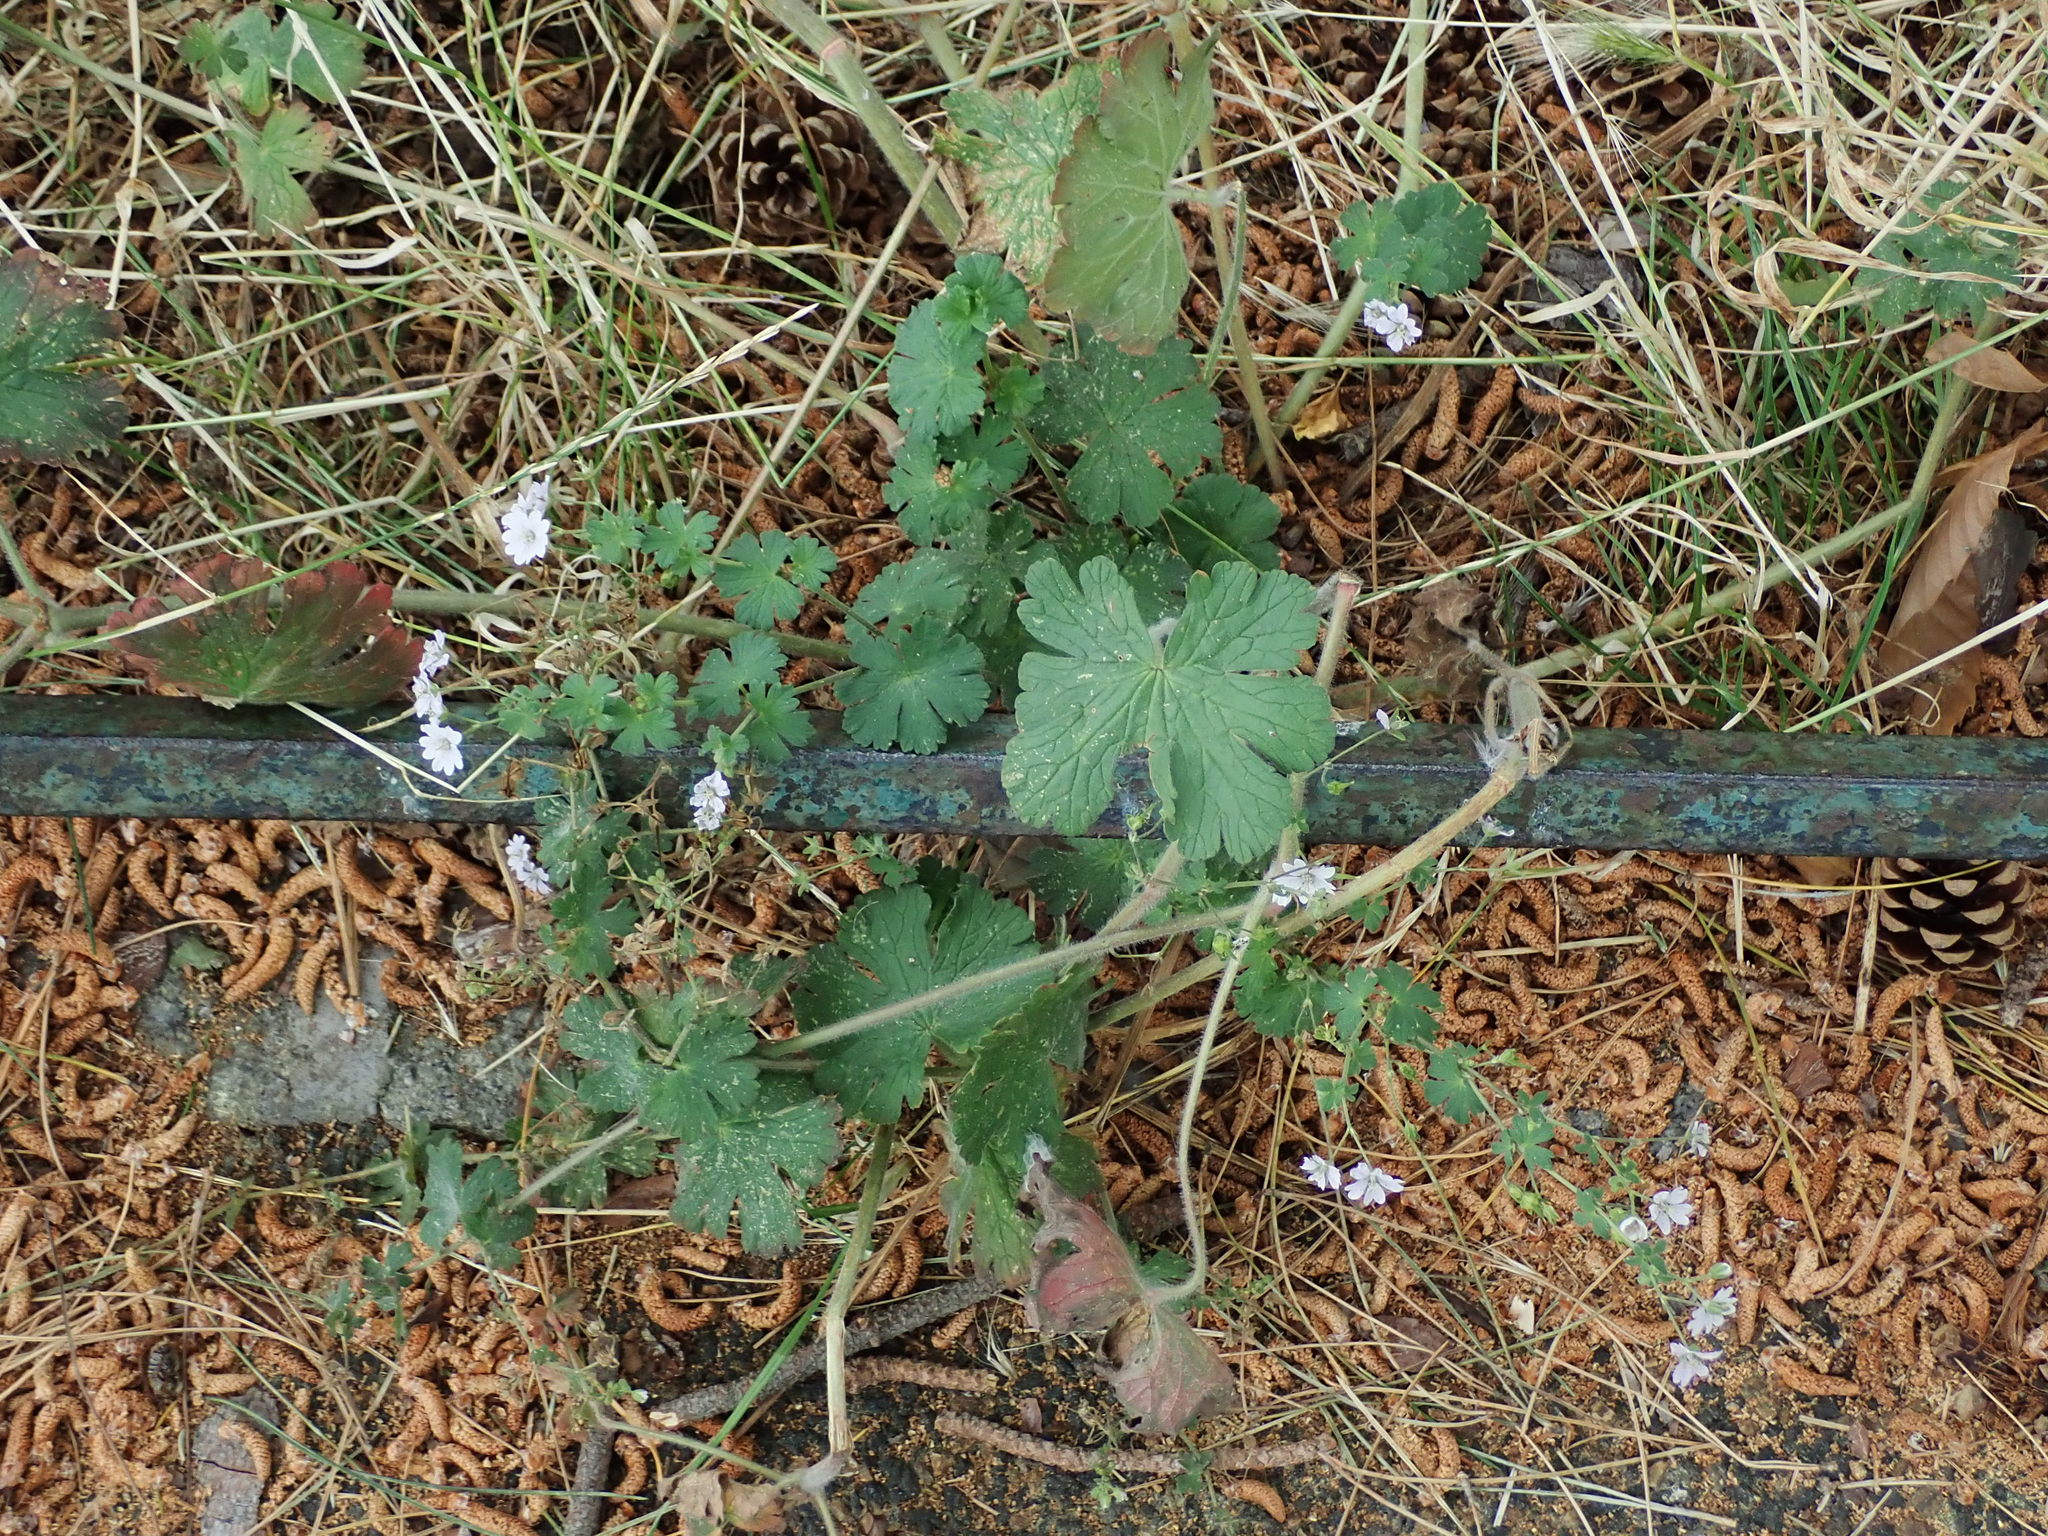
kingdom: Plantae
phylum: Tracheophyta
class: Magnoliopsida
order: Geraniales
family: Geraniaceae
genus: Geranium
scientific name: Geranium pyrenaicum
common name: Hedgerow crane's-bill
